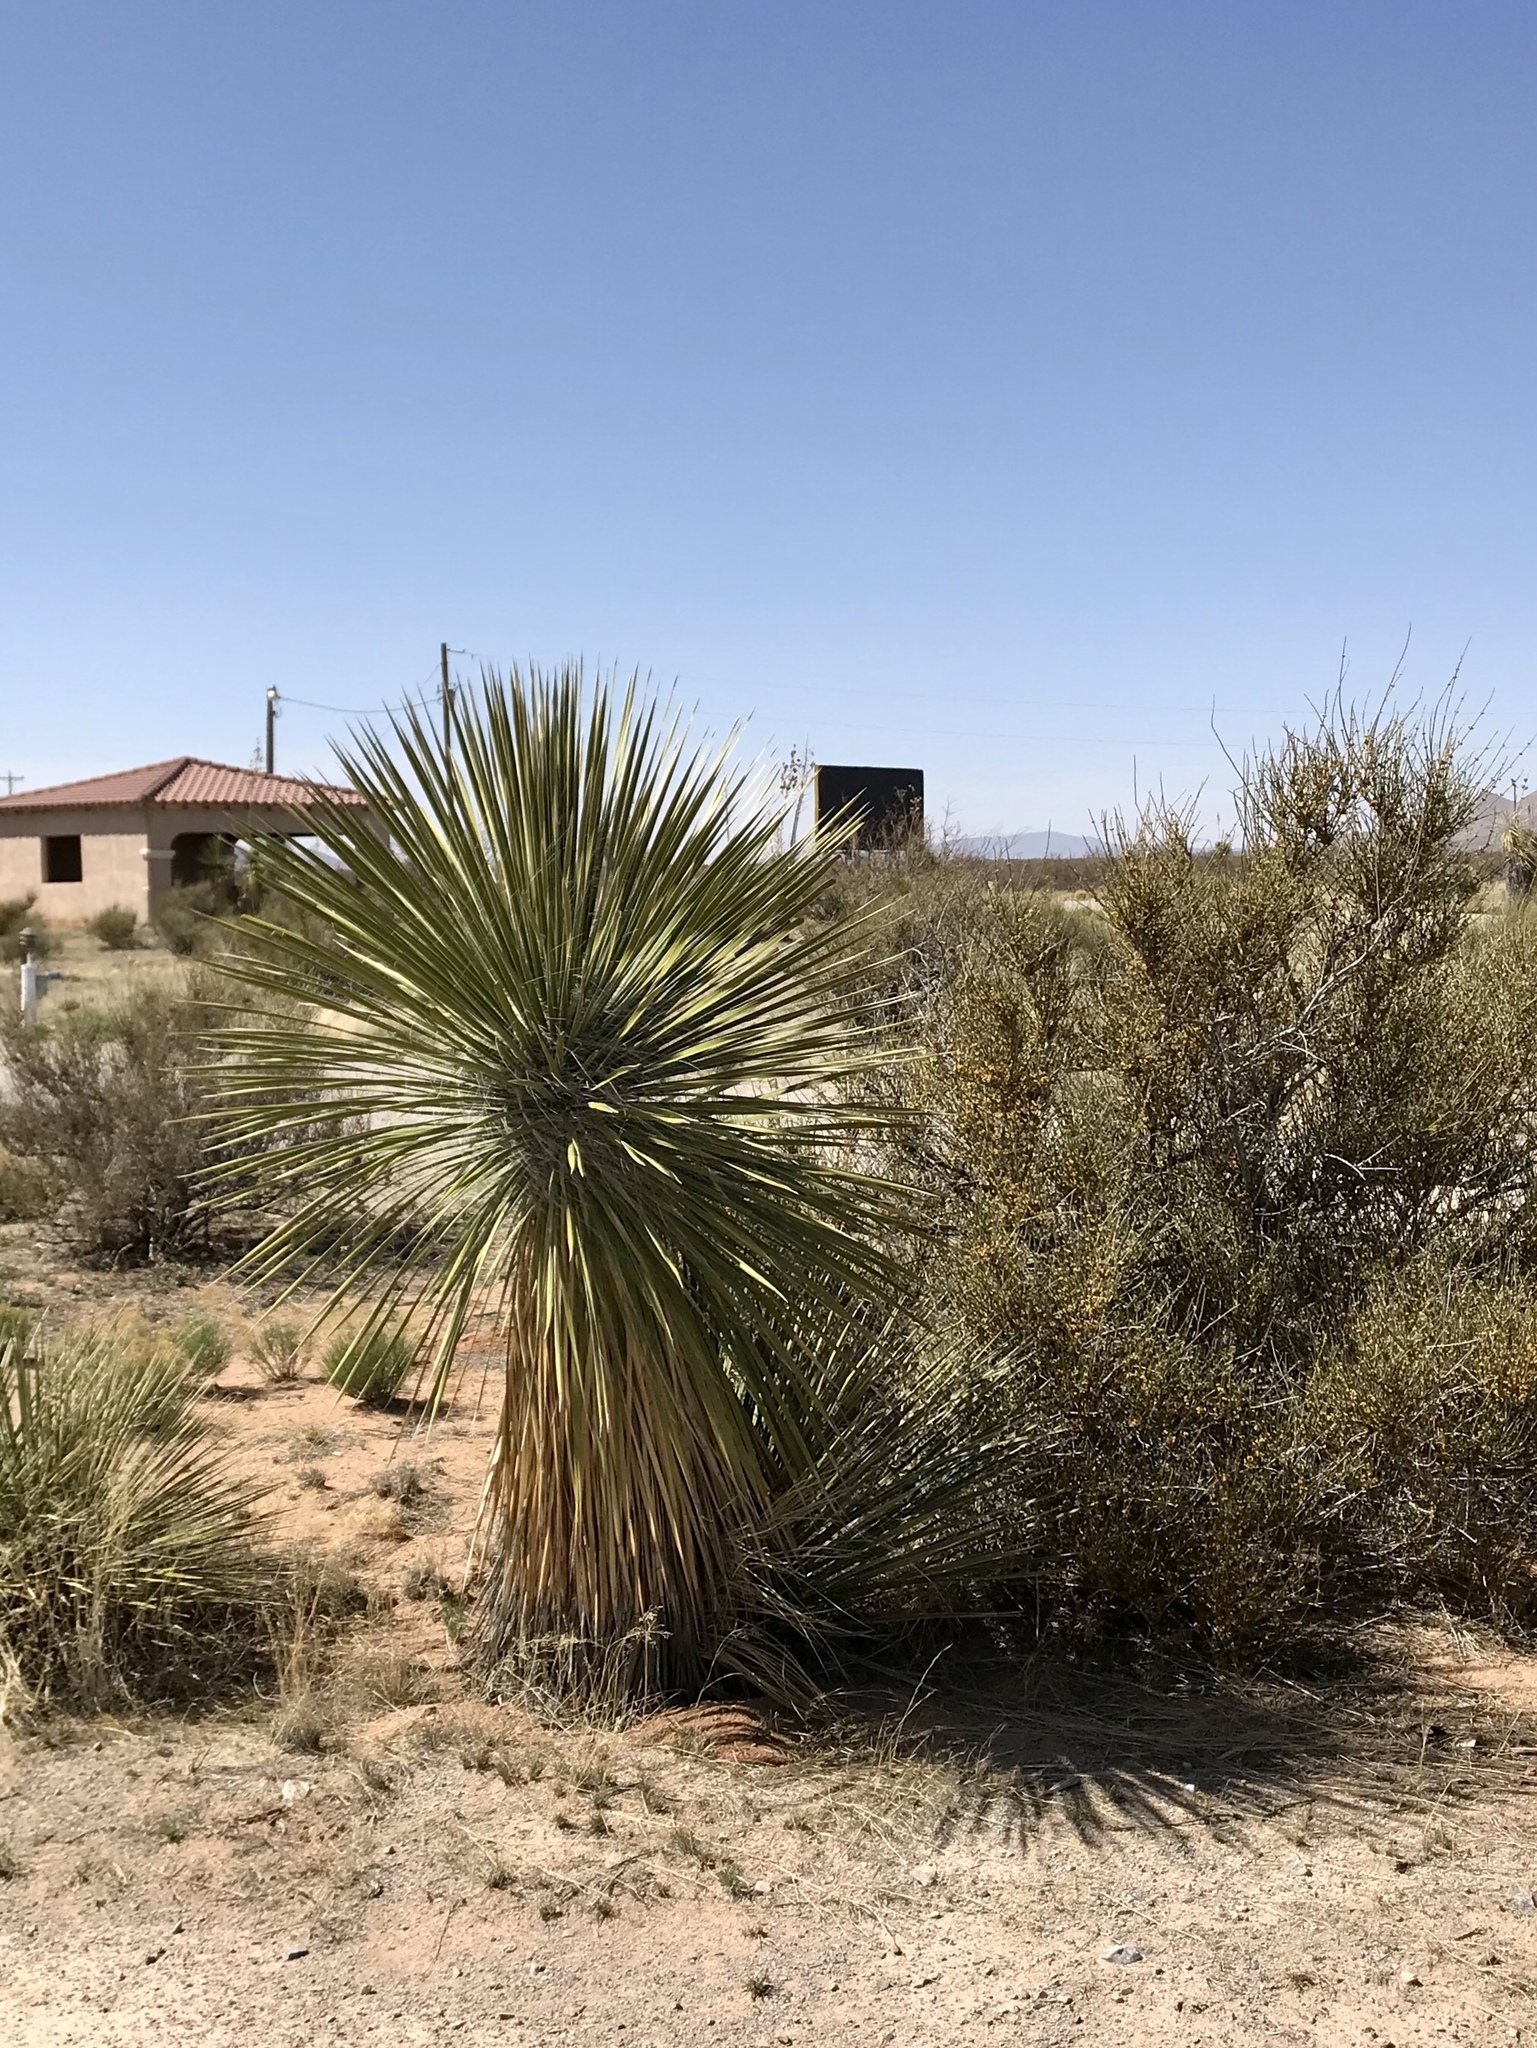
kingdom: Plantae
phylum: Tracheophyta
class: Liliopsida
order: Asparagales
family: Asparagaceae
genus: Yucca
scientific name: Yucca elata
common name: Palmella
